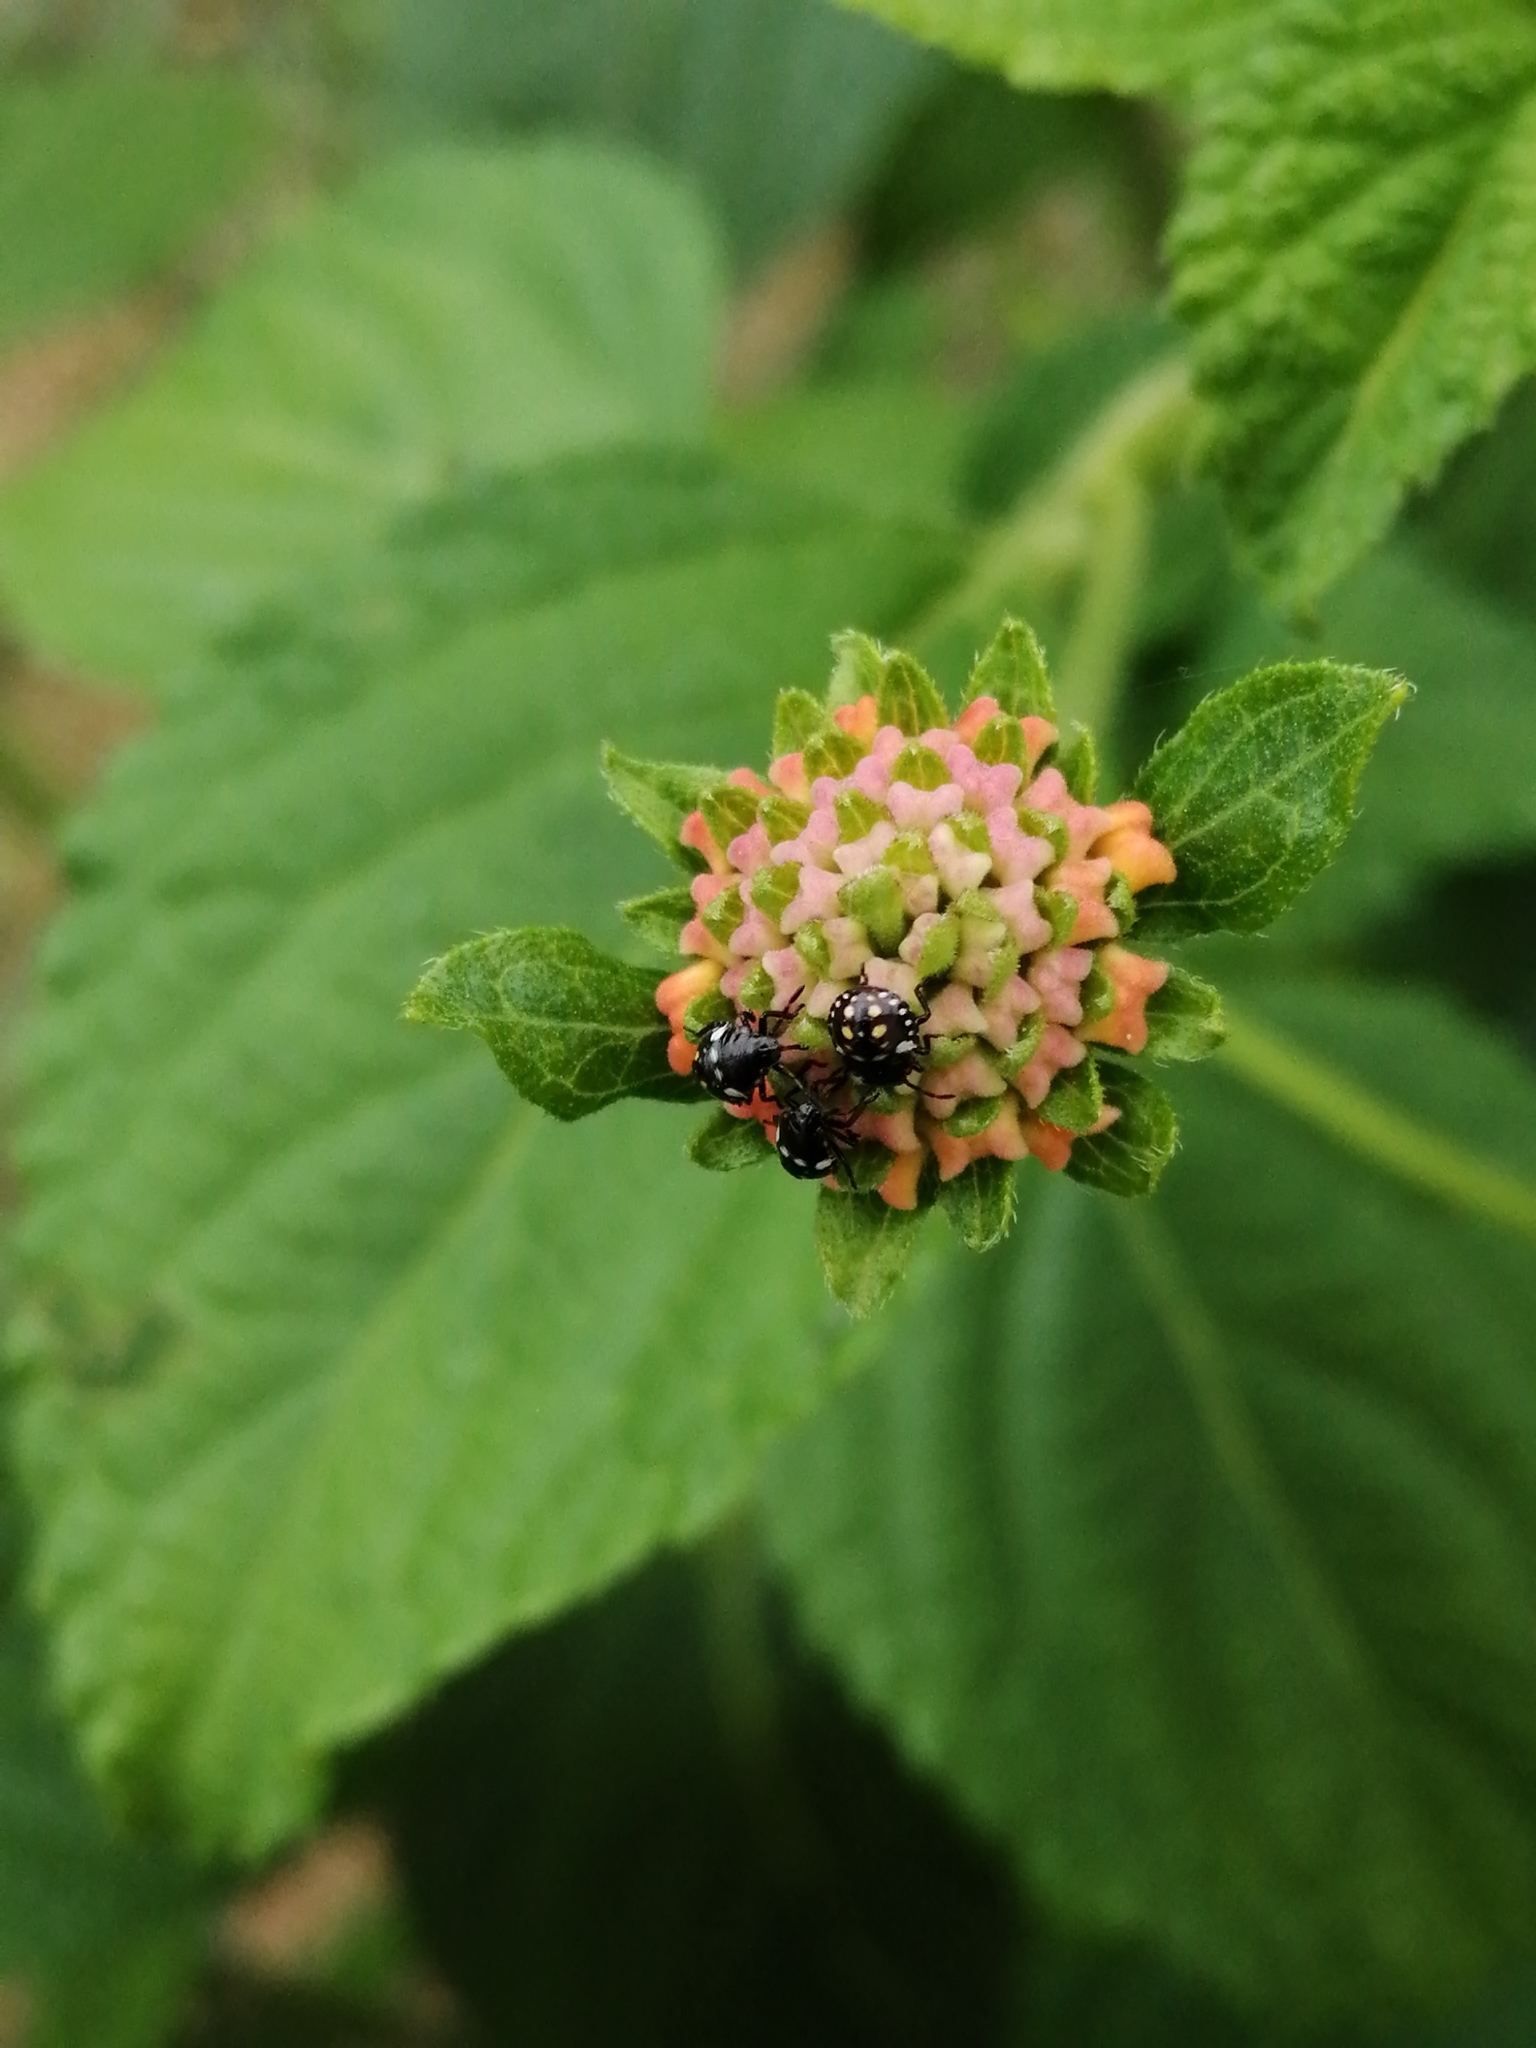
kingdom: Animalia
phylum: Arthropoda
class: Insecta
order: Hemiptera
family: Pentatomidae
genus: Nezara
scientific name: Nezara viridula
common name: Southern green stink bug
